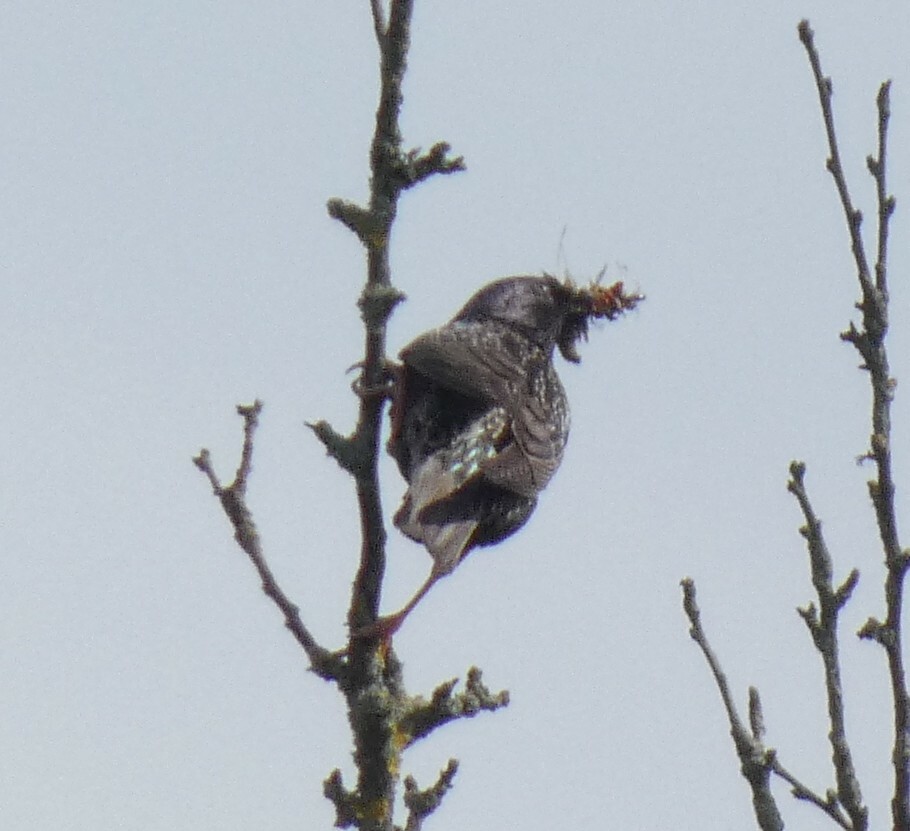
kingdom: Animalia
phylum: Chordata
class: Aves
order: Passeriformes
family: Sturnidae
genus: Sturnus
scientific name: Sturnus vulgaris
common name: Common starling
